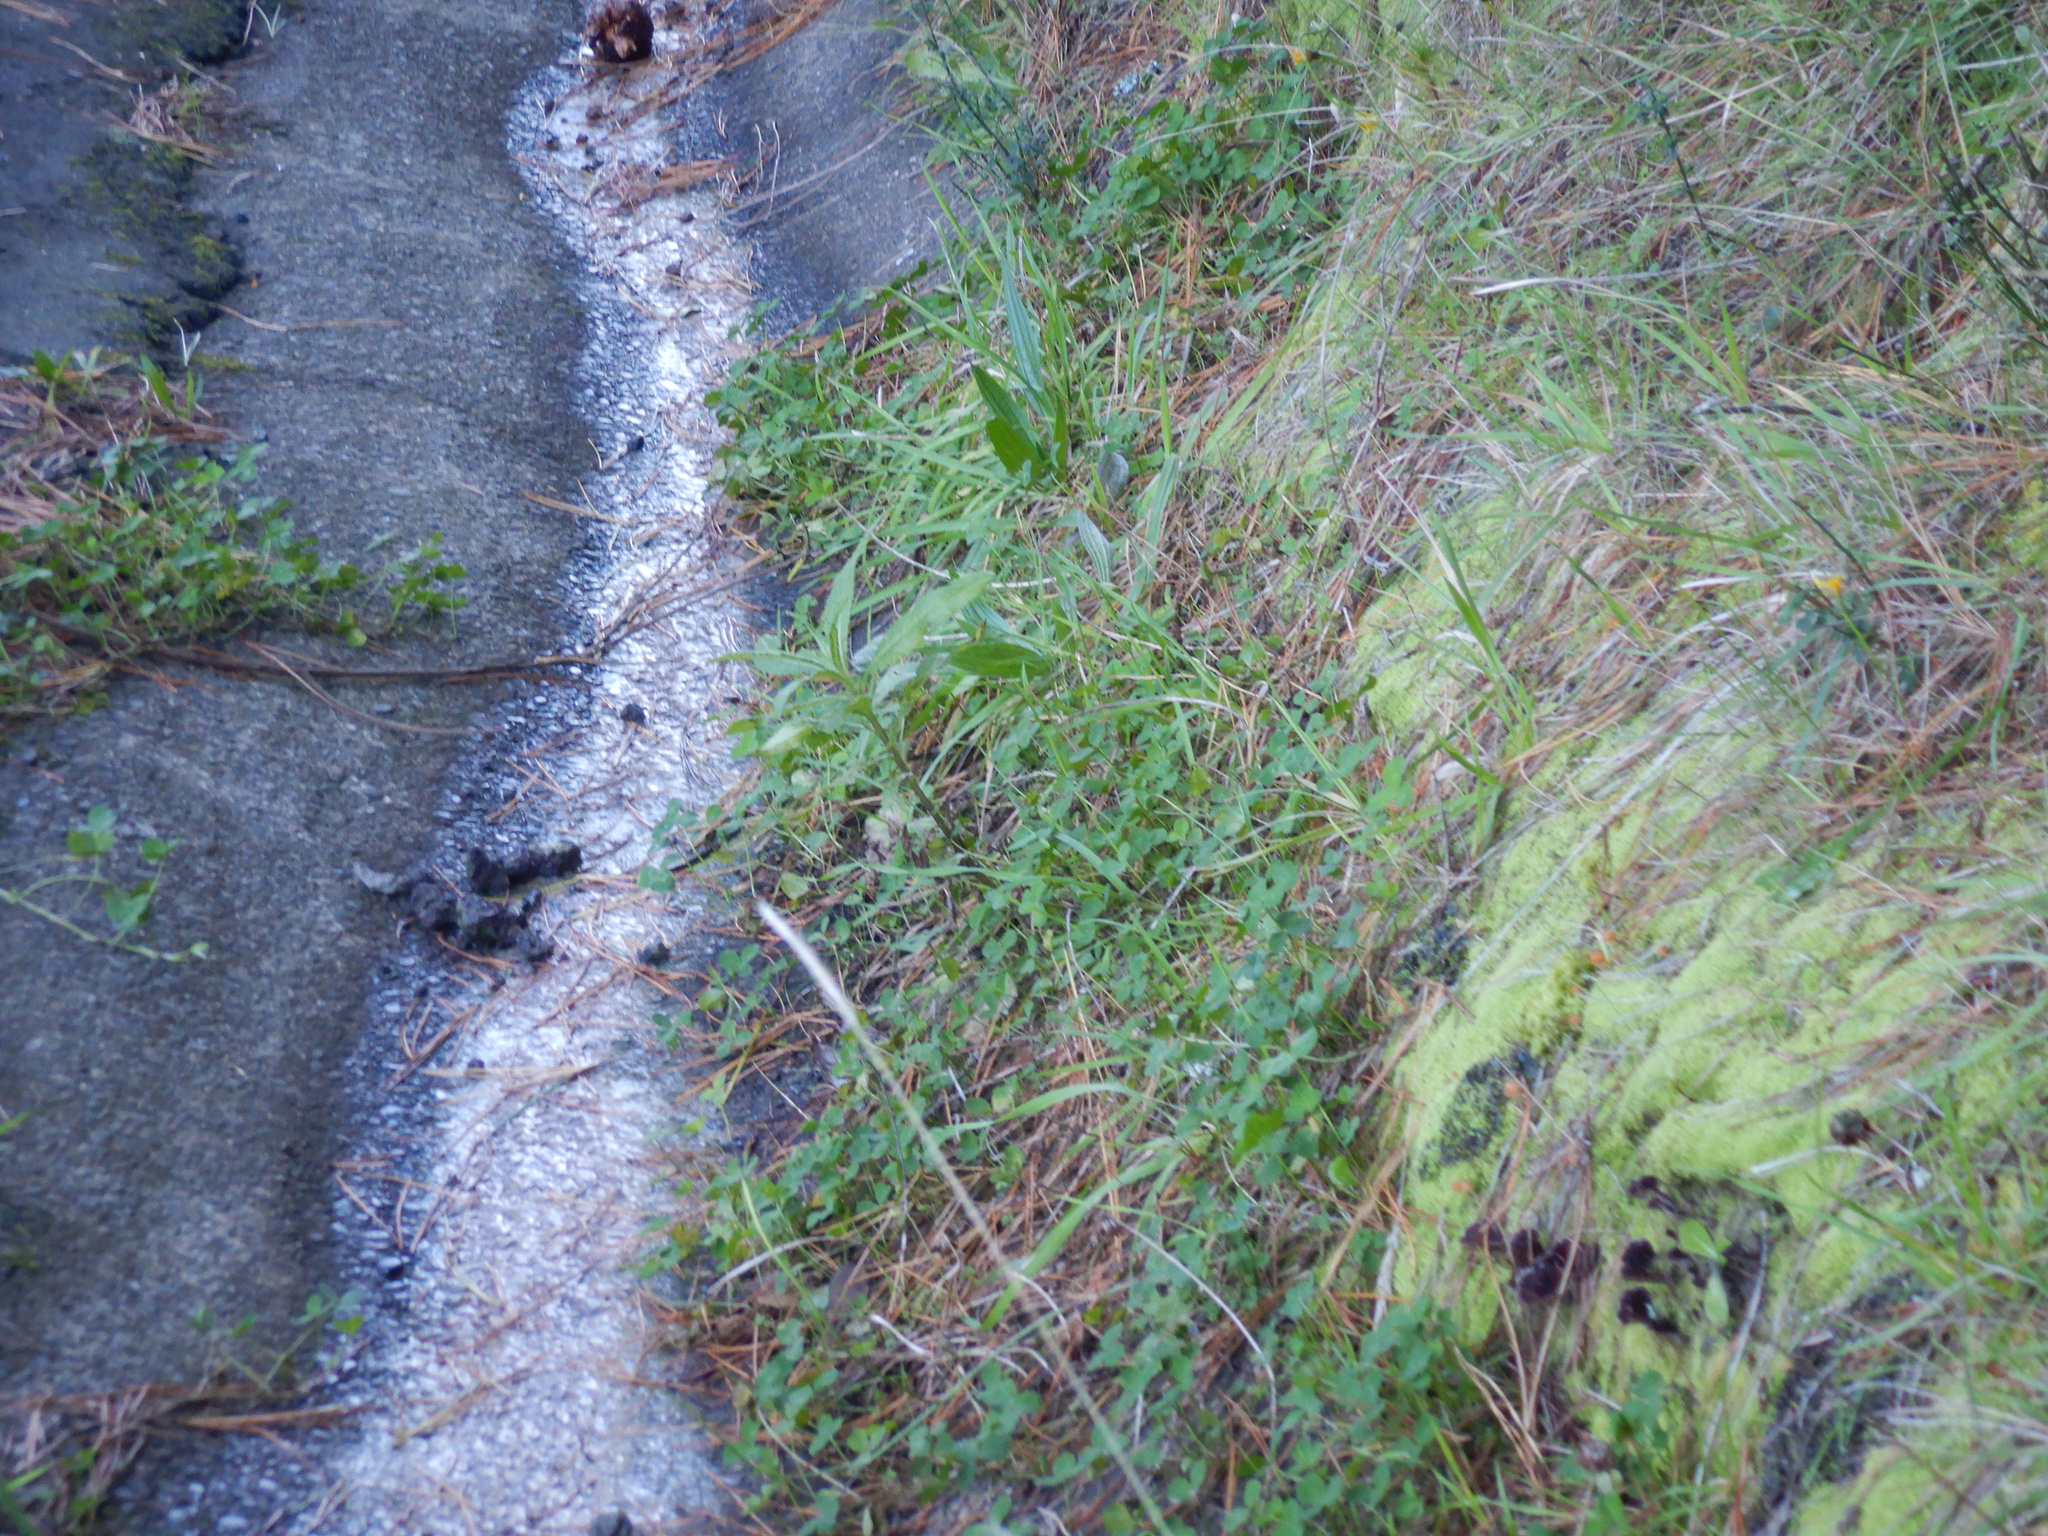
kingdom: Plantae
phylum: Tracheophyta
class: Magnoliopsida
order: Asterales
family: Asteraceae
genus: Senecio
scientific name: Senecio minimus
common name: Toothed fireweed
